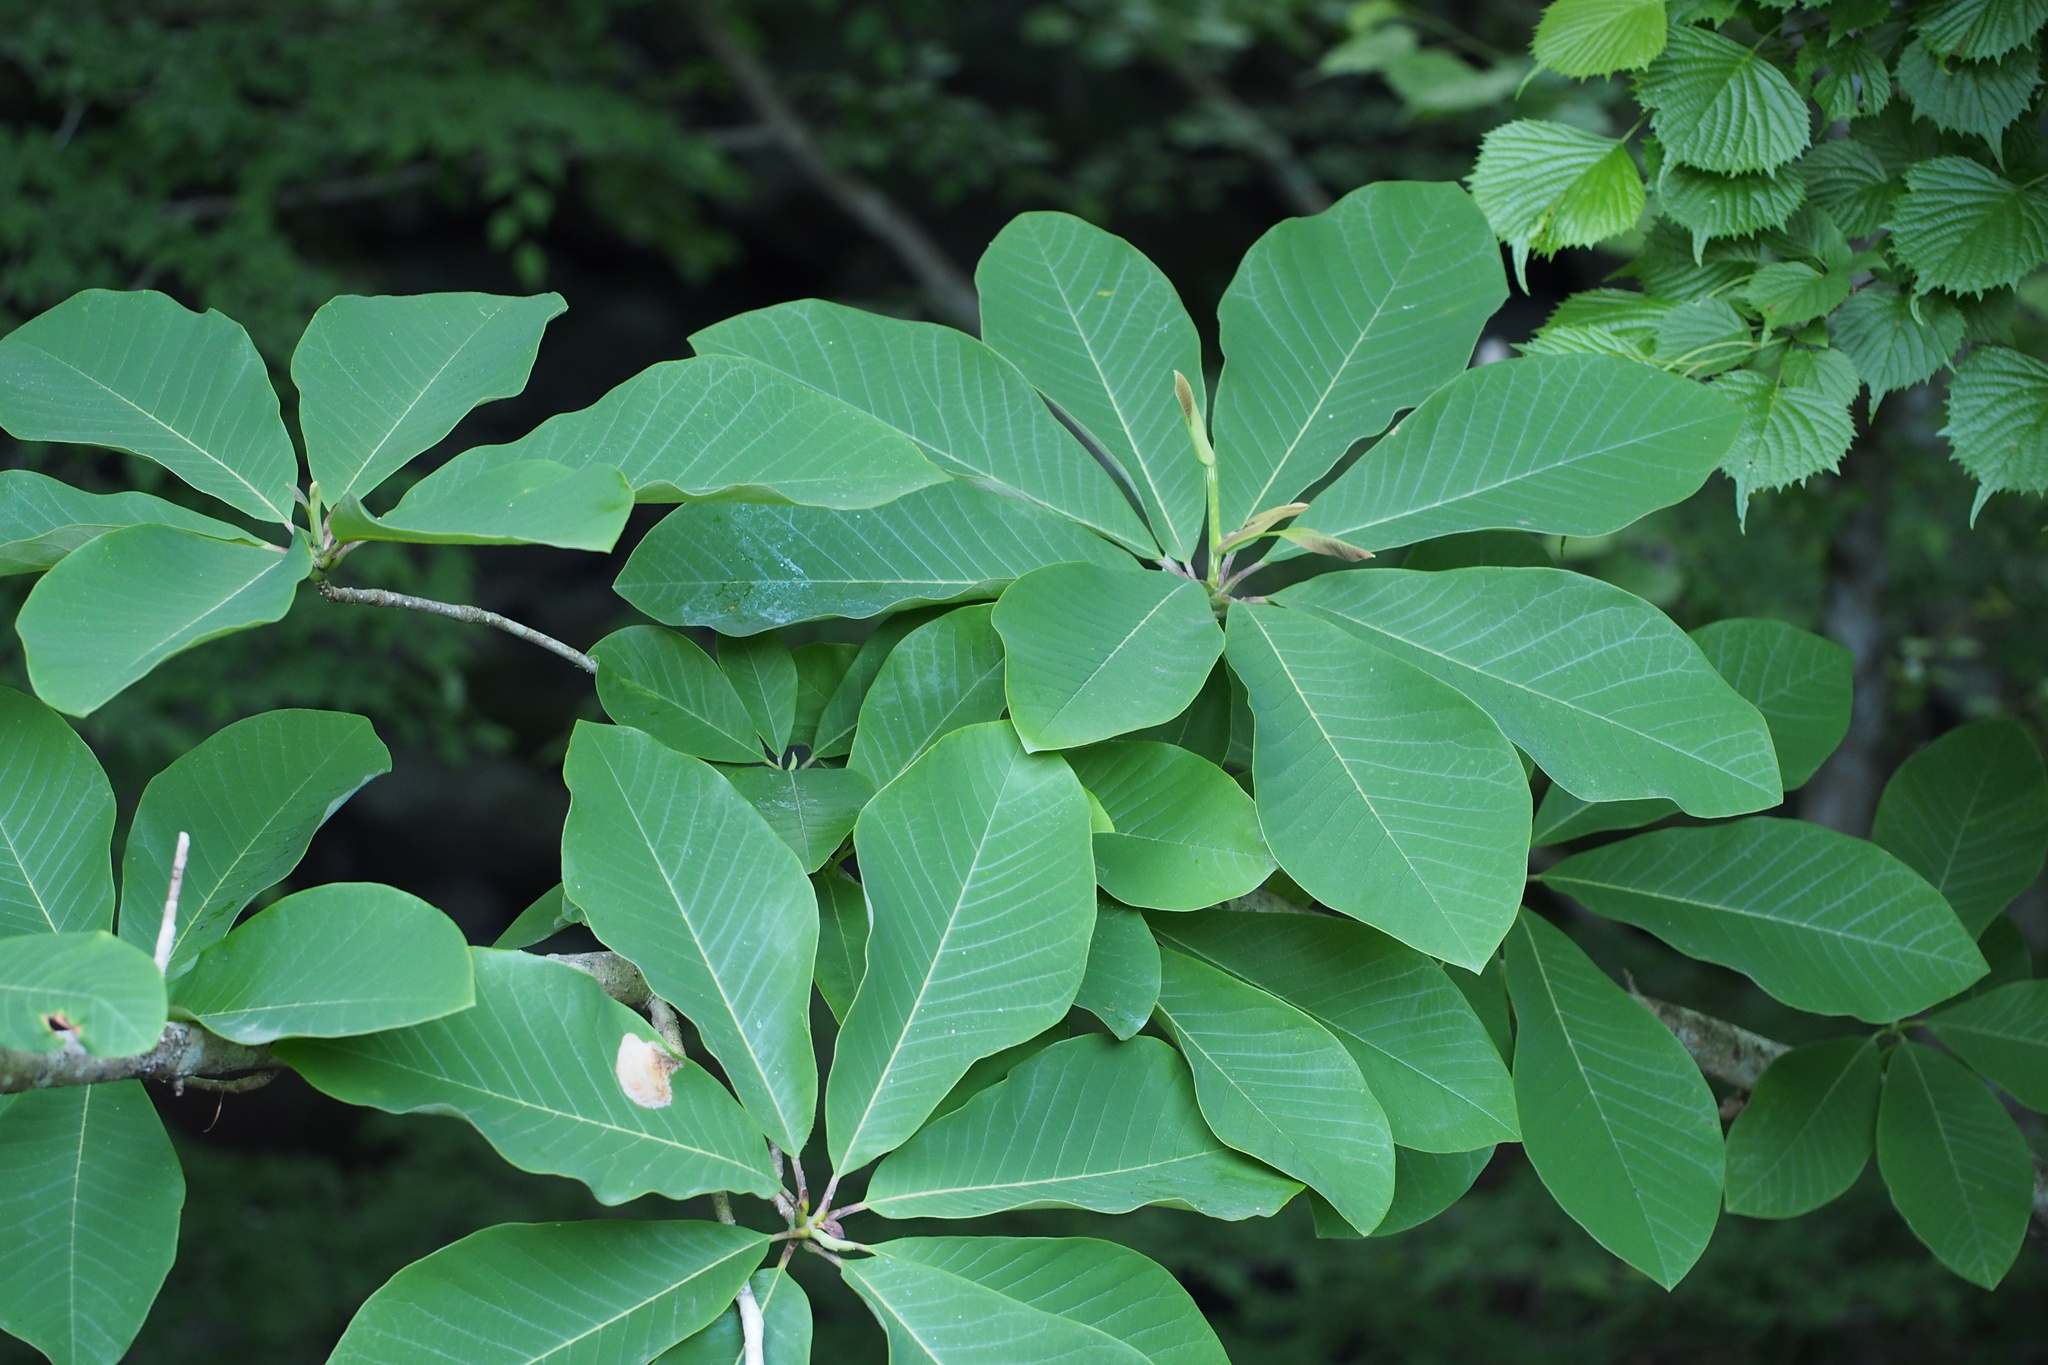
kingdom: Plantae
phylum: Tracheophyta
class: Magnoliopsida
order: Magnoliales
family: Magnoliaceae
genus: Magnolia
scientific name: Magnolia obovata
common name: Japanese whitebark magnolia
